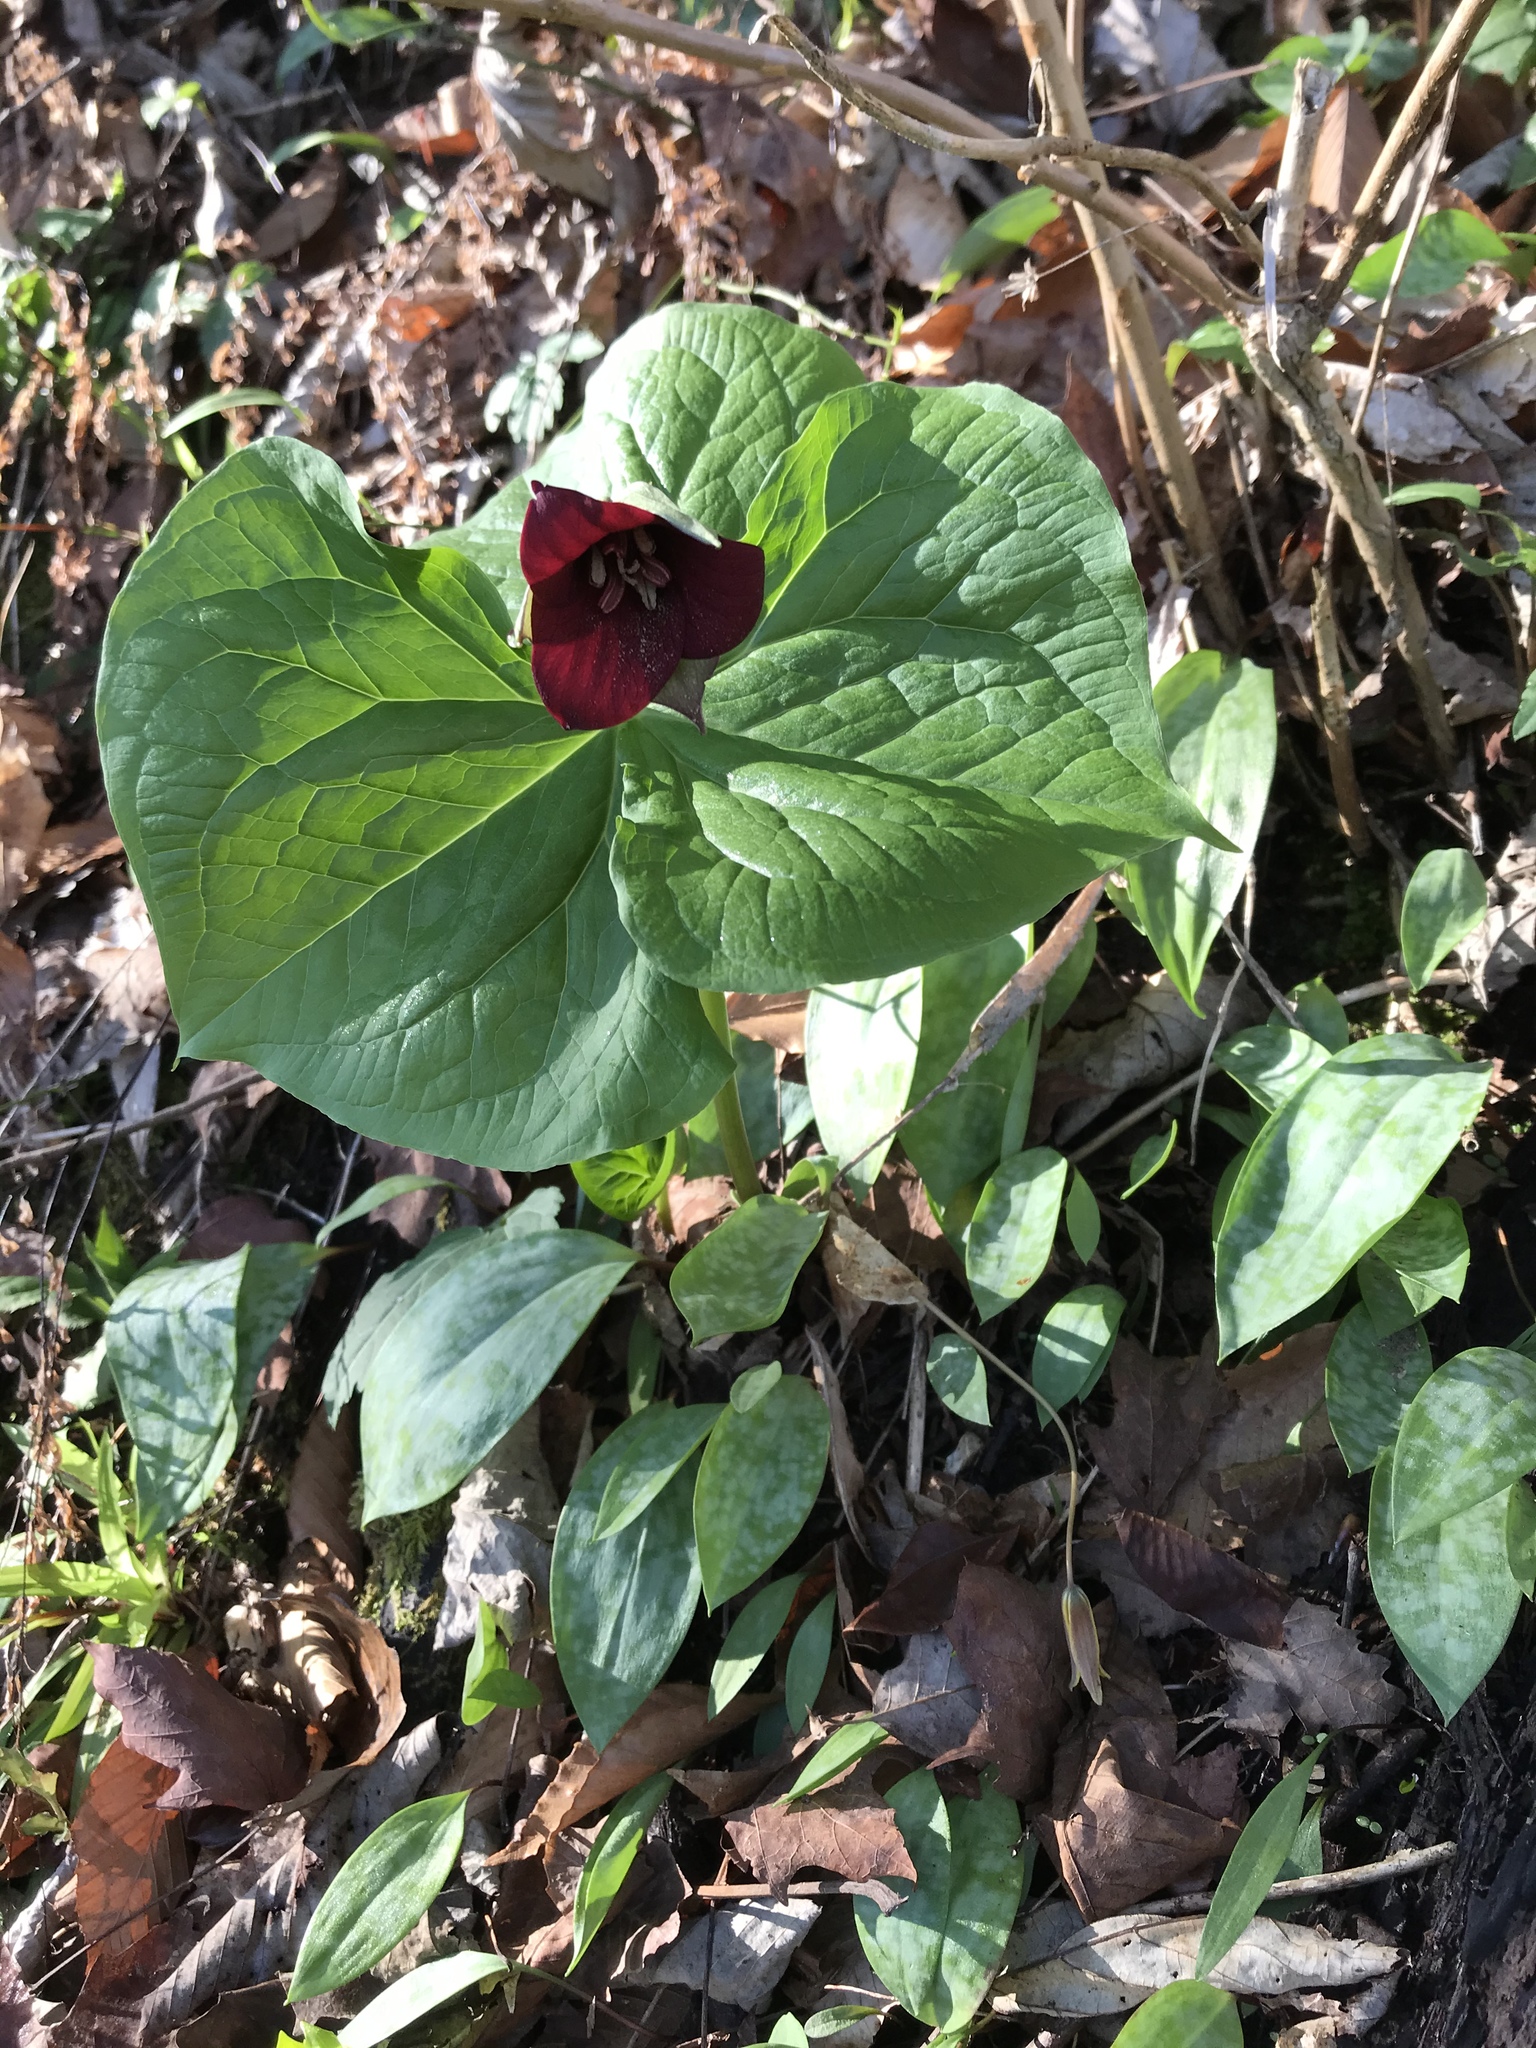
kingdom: Plantae
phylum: Tracheophyta
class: Liliopsida
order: Liliales
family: Melanthiaceae
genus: Trillium
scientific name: Trillium sulcatum
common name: Barksdale trillium
